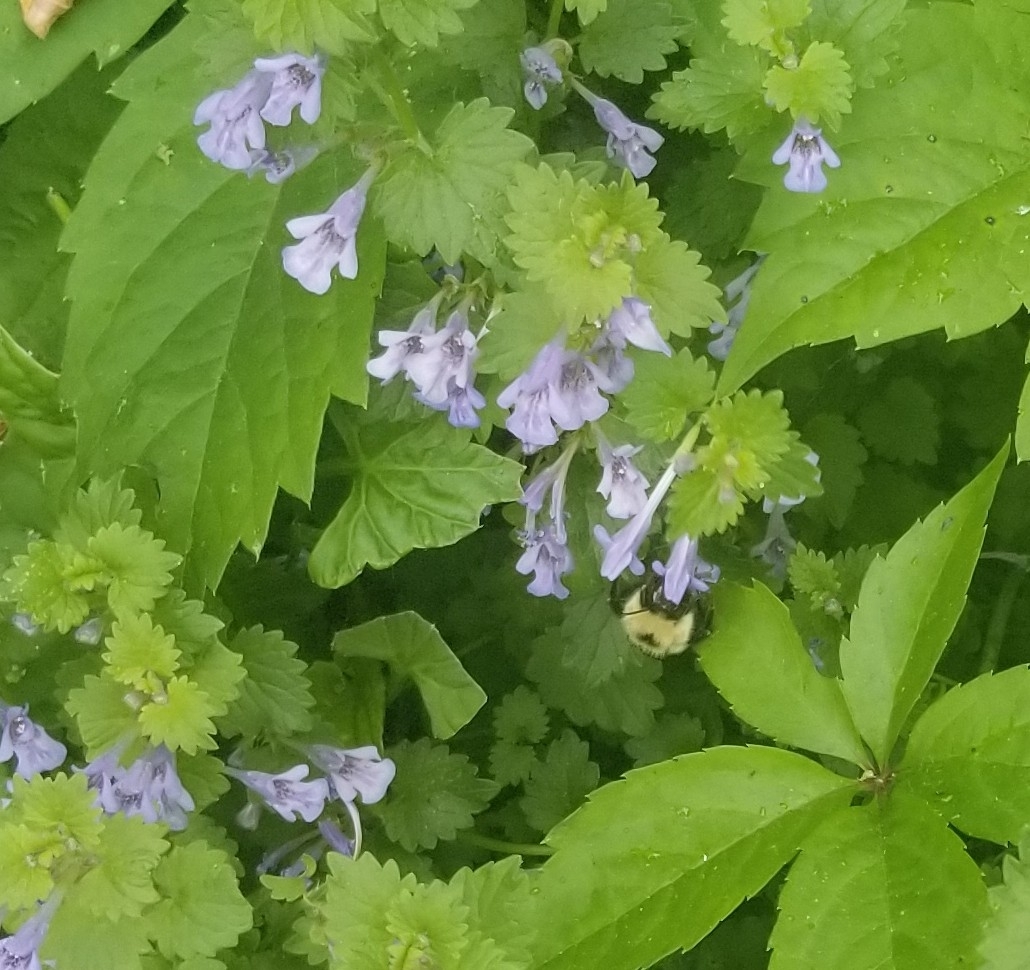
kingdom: Animalia
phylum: Arthropoda
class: Insecta
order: Hymenoptera
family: Apidae
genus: Pyrobombus
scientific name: Pyrobombus
